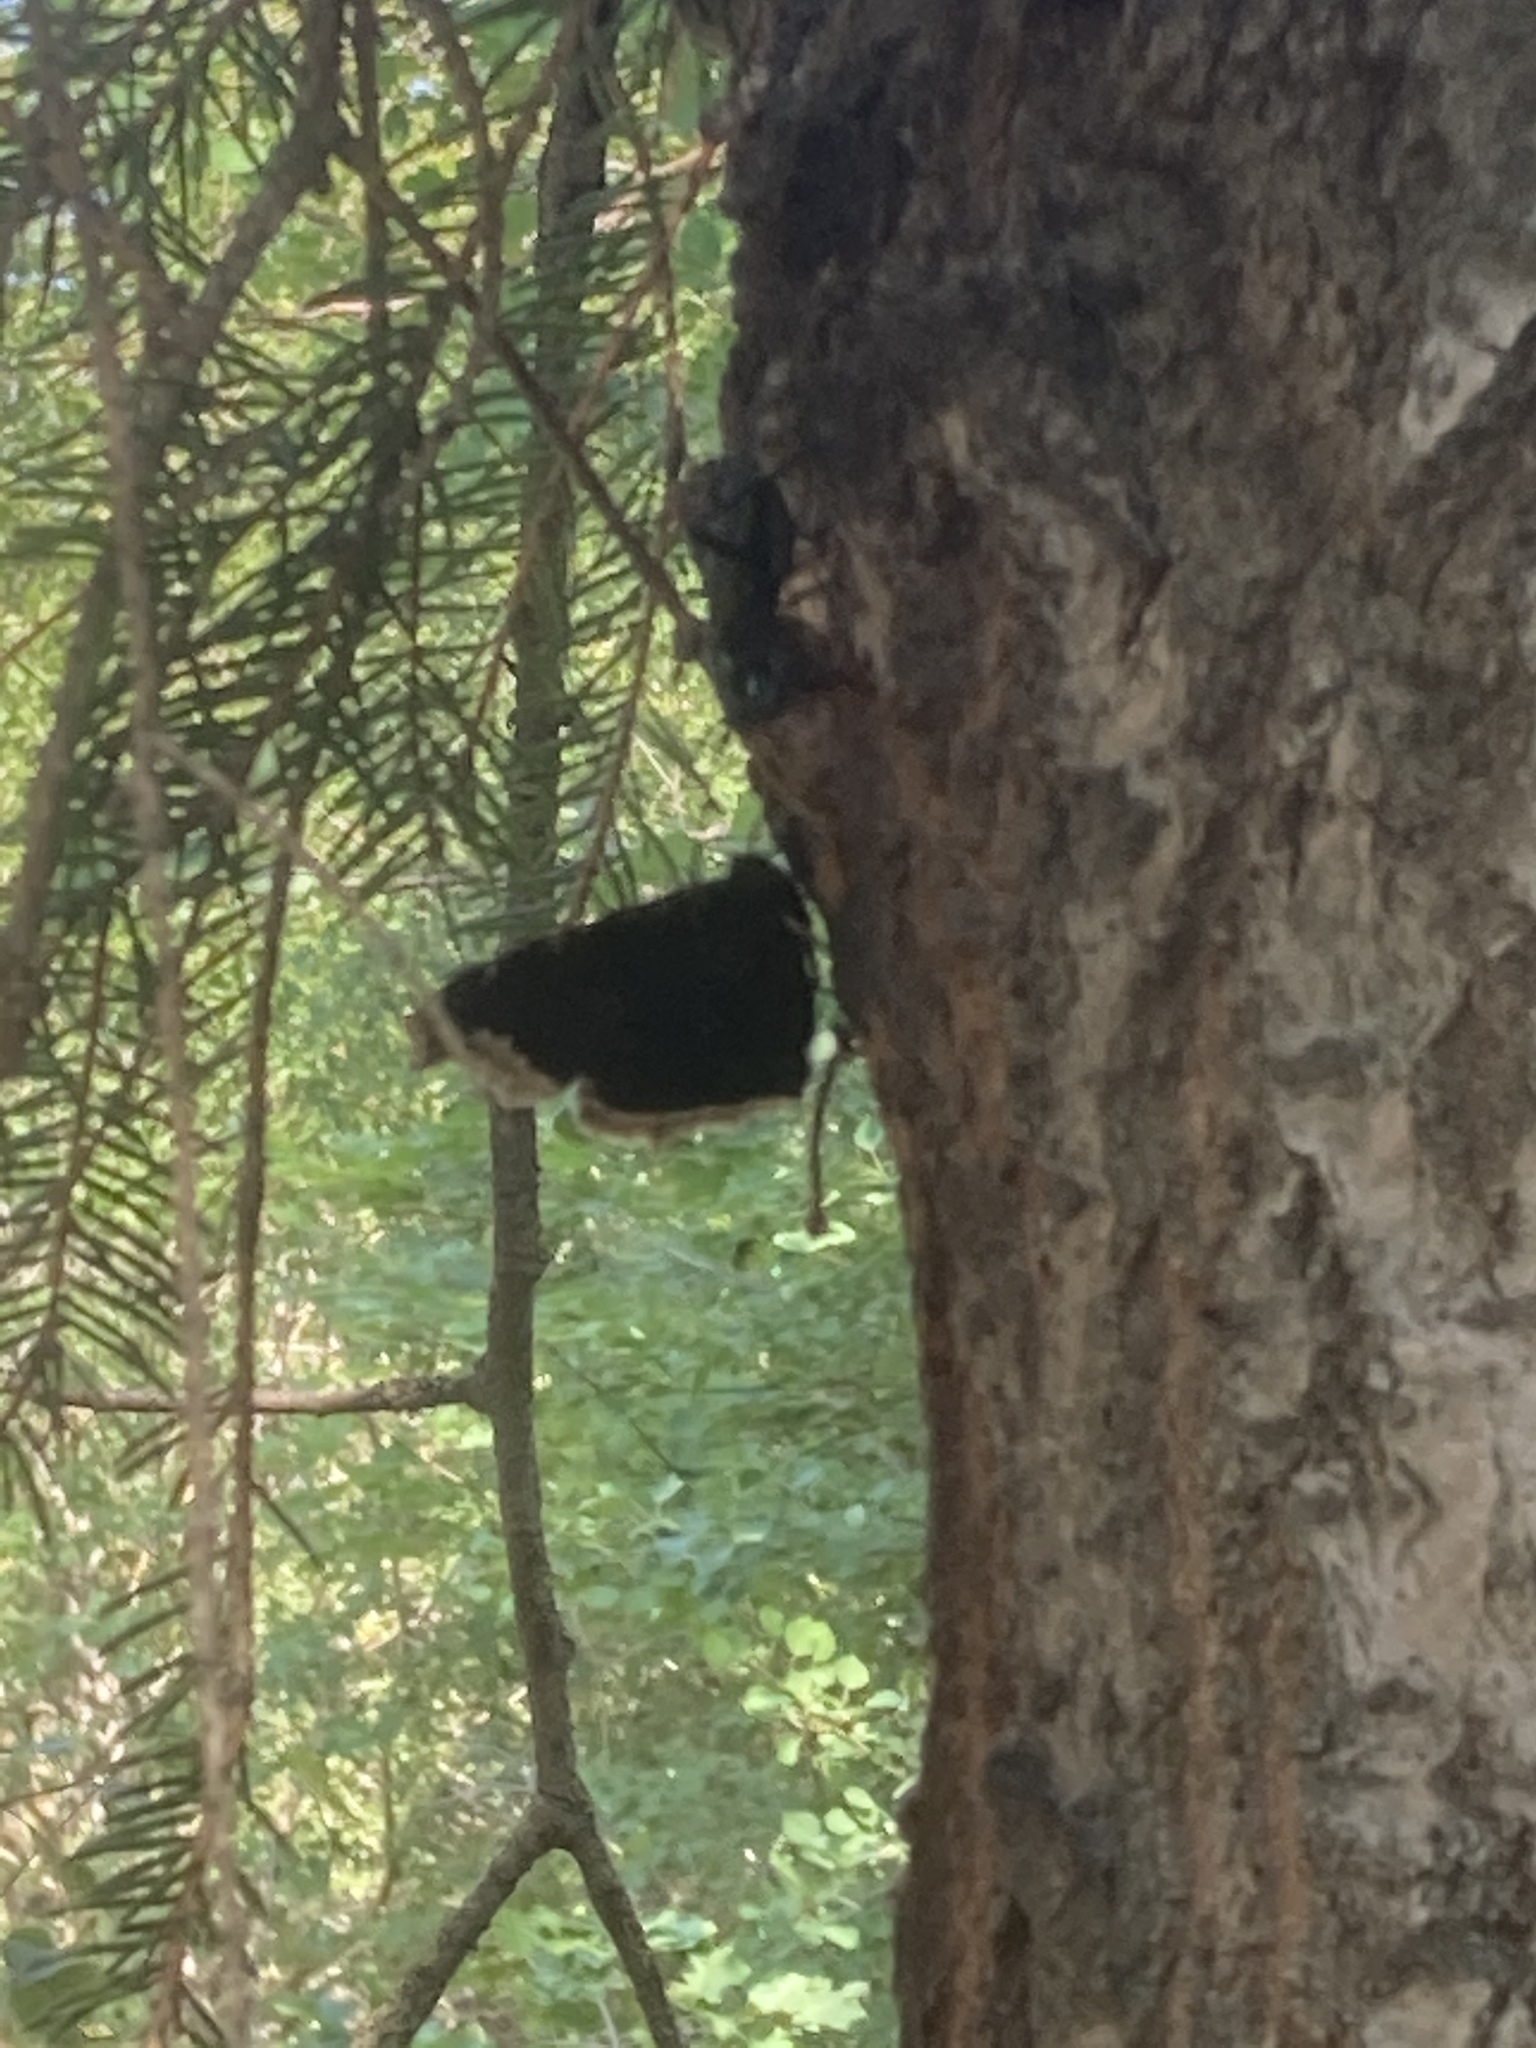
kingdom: Animalia
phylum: Arthropoda
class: Insecta
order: Lepidoptera
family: Nymphalidae
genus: Nymphalis
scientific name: Nymphalis antiopa
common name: Camberwell beauty
